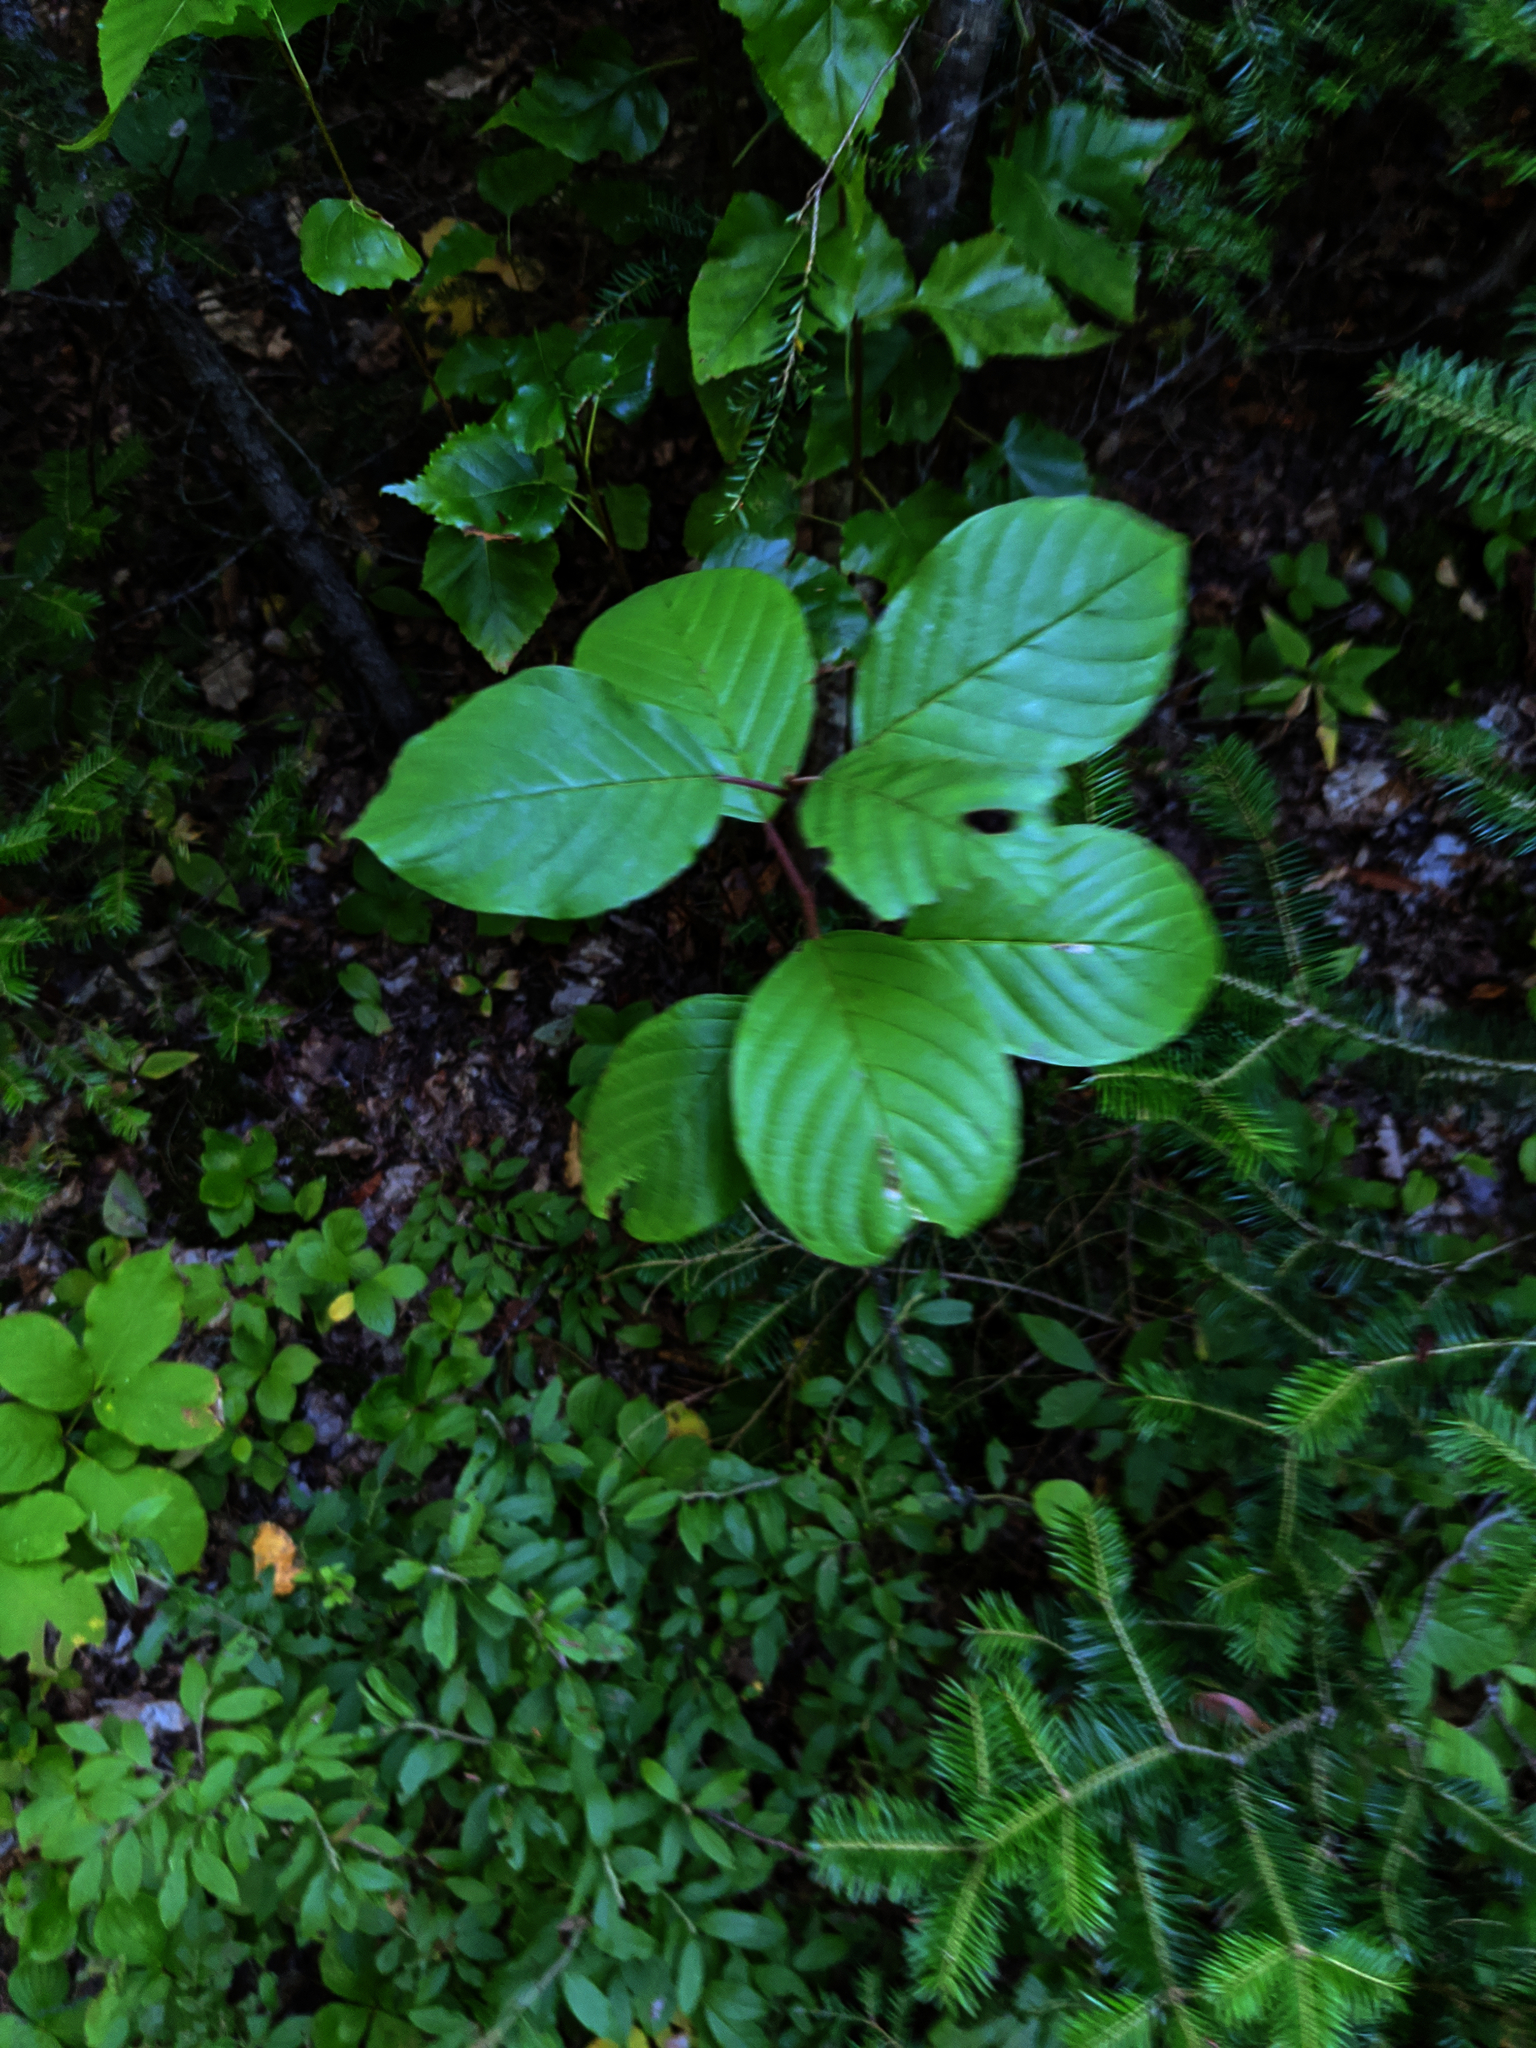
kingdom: Plantae
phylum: Tracheophyta
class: Magnoliopsida
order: Rosales
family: Rhamnaceae
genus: Frangula
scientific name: Frangula alnus
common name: Alder buckthorn
